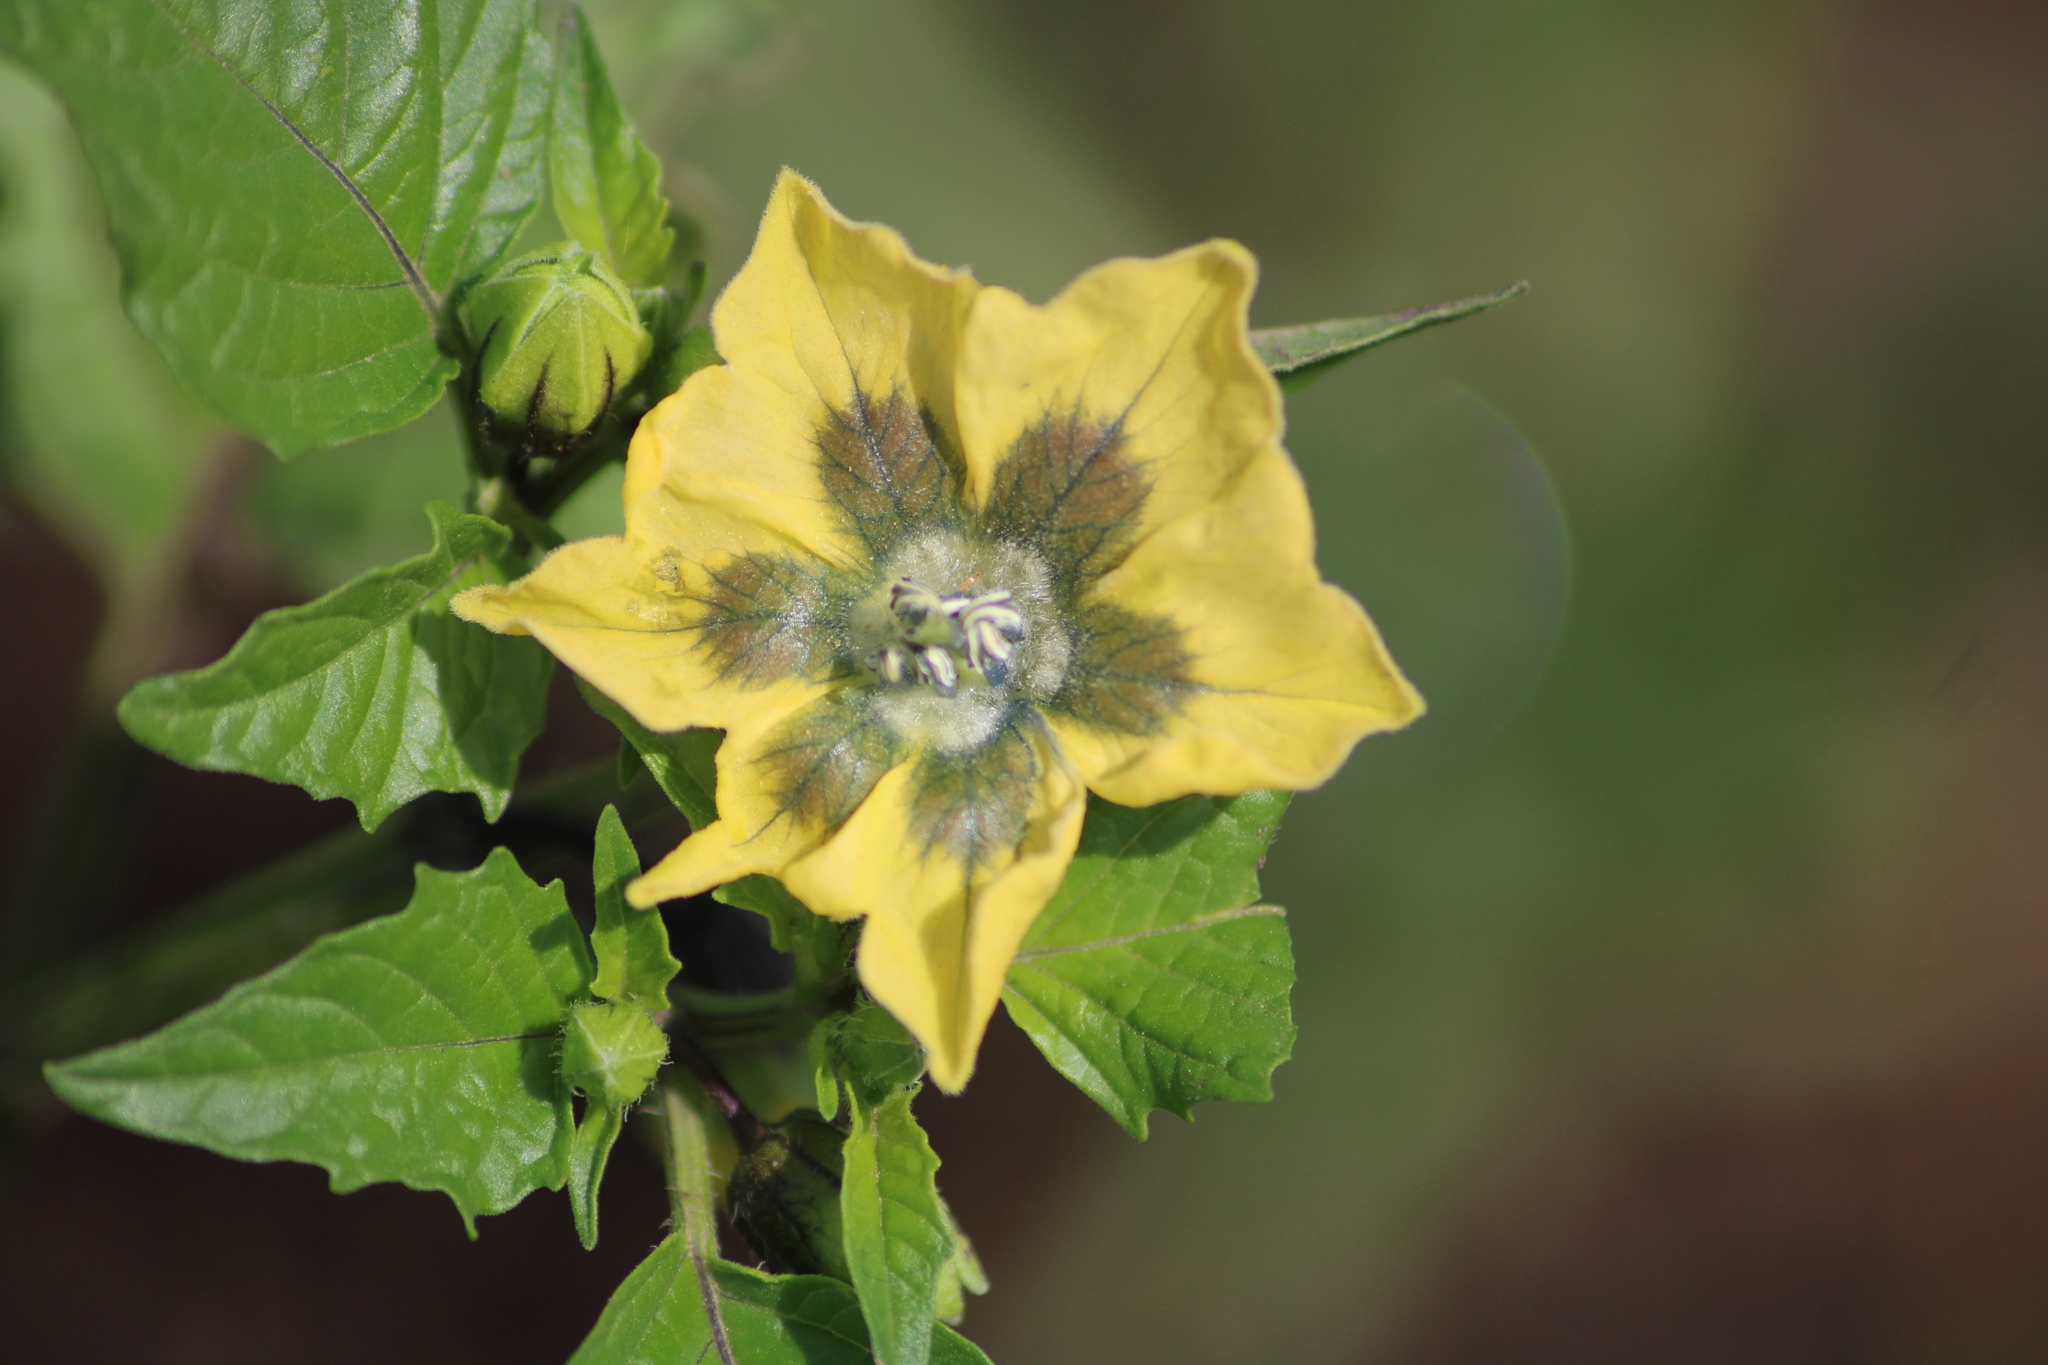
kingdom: Plantae
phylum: Tracheophyta
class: Magnoliopsida
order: Solanales
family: Solanaceae
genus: Physalis
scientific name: Physalis philadelphica
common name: Husk-tomato
